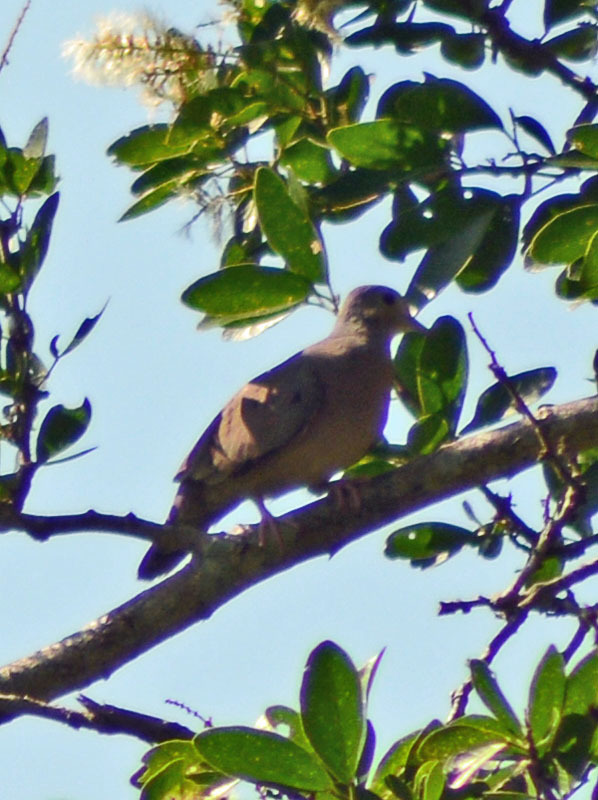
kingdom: Animalia
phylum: Chordata
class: Aves
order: Columbiformes
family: Columbidae
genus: Columbina
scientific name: Columbina talpacoti
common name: Ruddy ground dove
